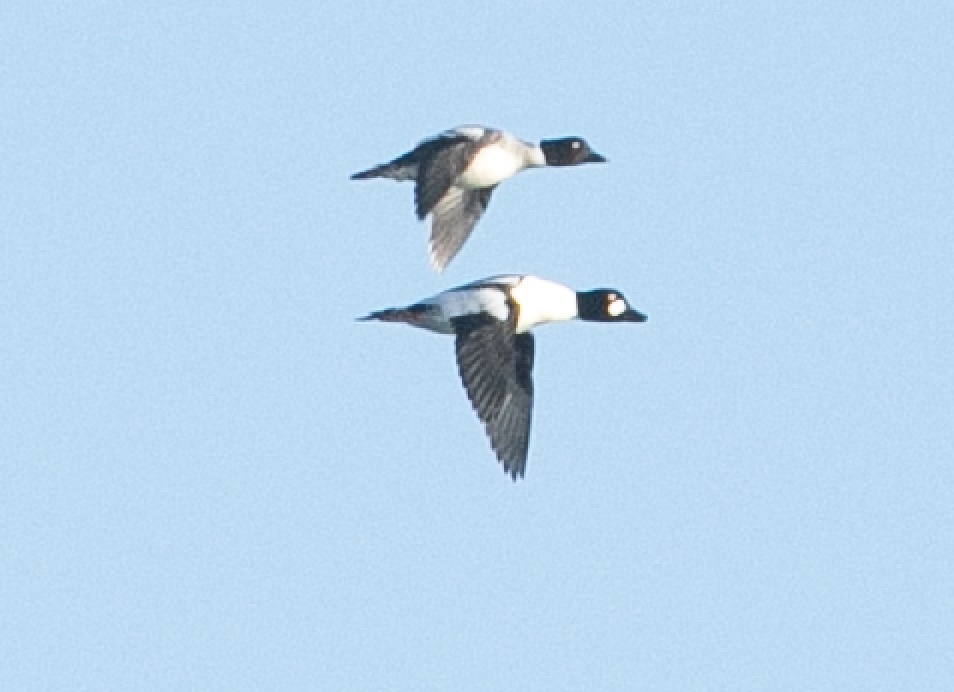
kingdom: Animalia
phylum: Chordata
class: Aves
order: Anseriformes
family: Anatidae
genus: Bucephala
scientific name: Bucephala clangula
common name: Common goldeneye
